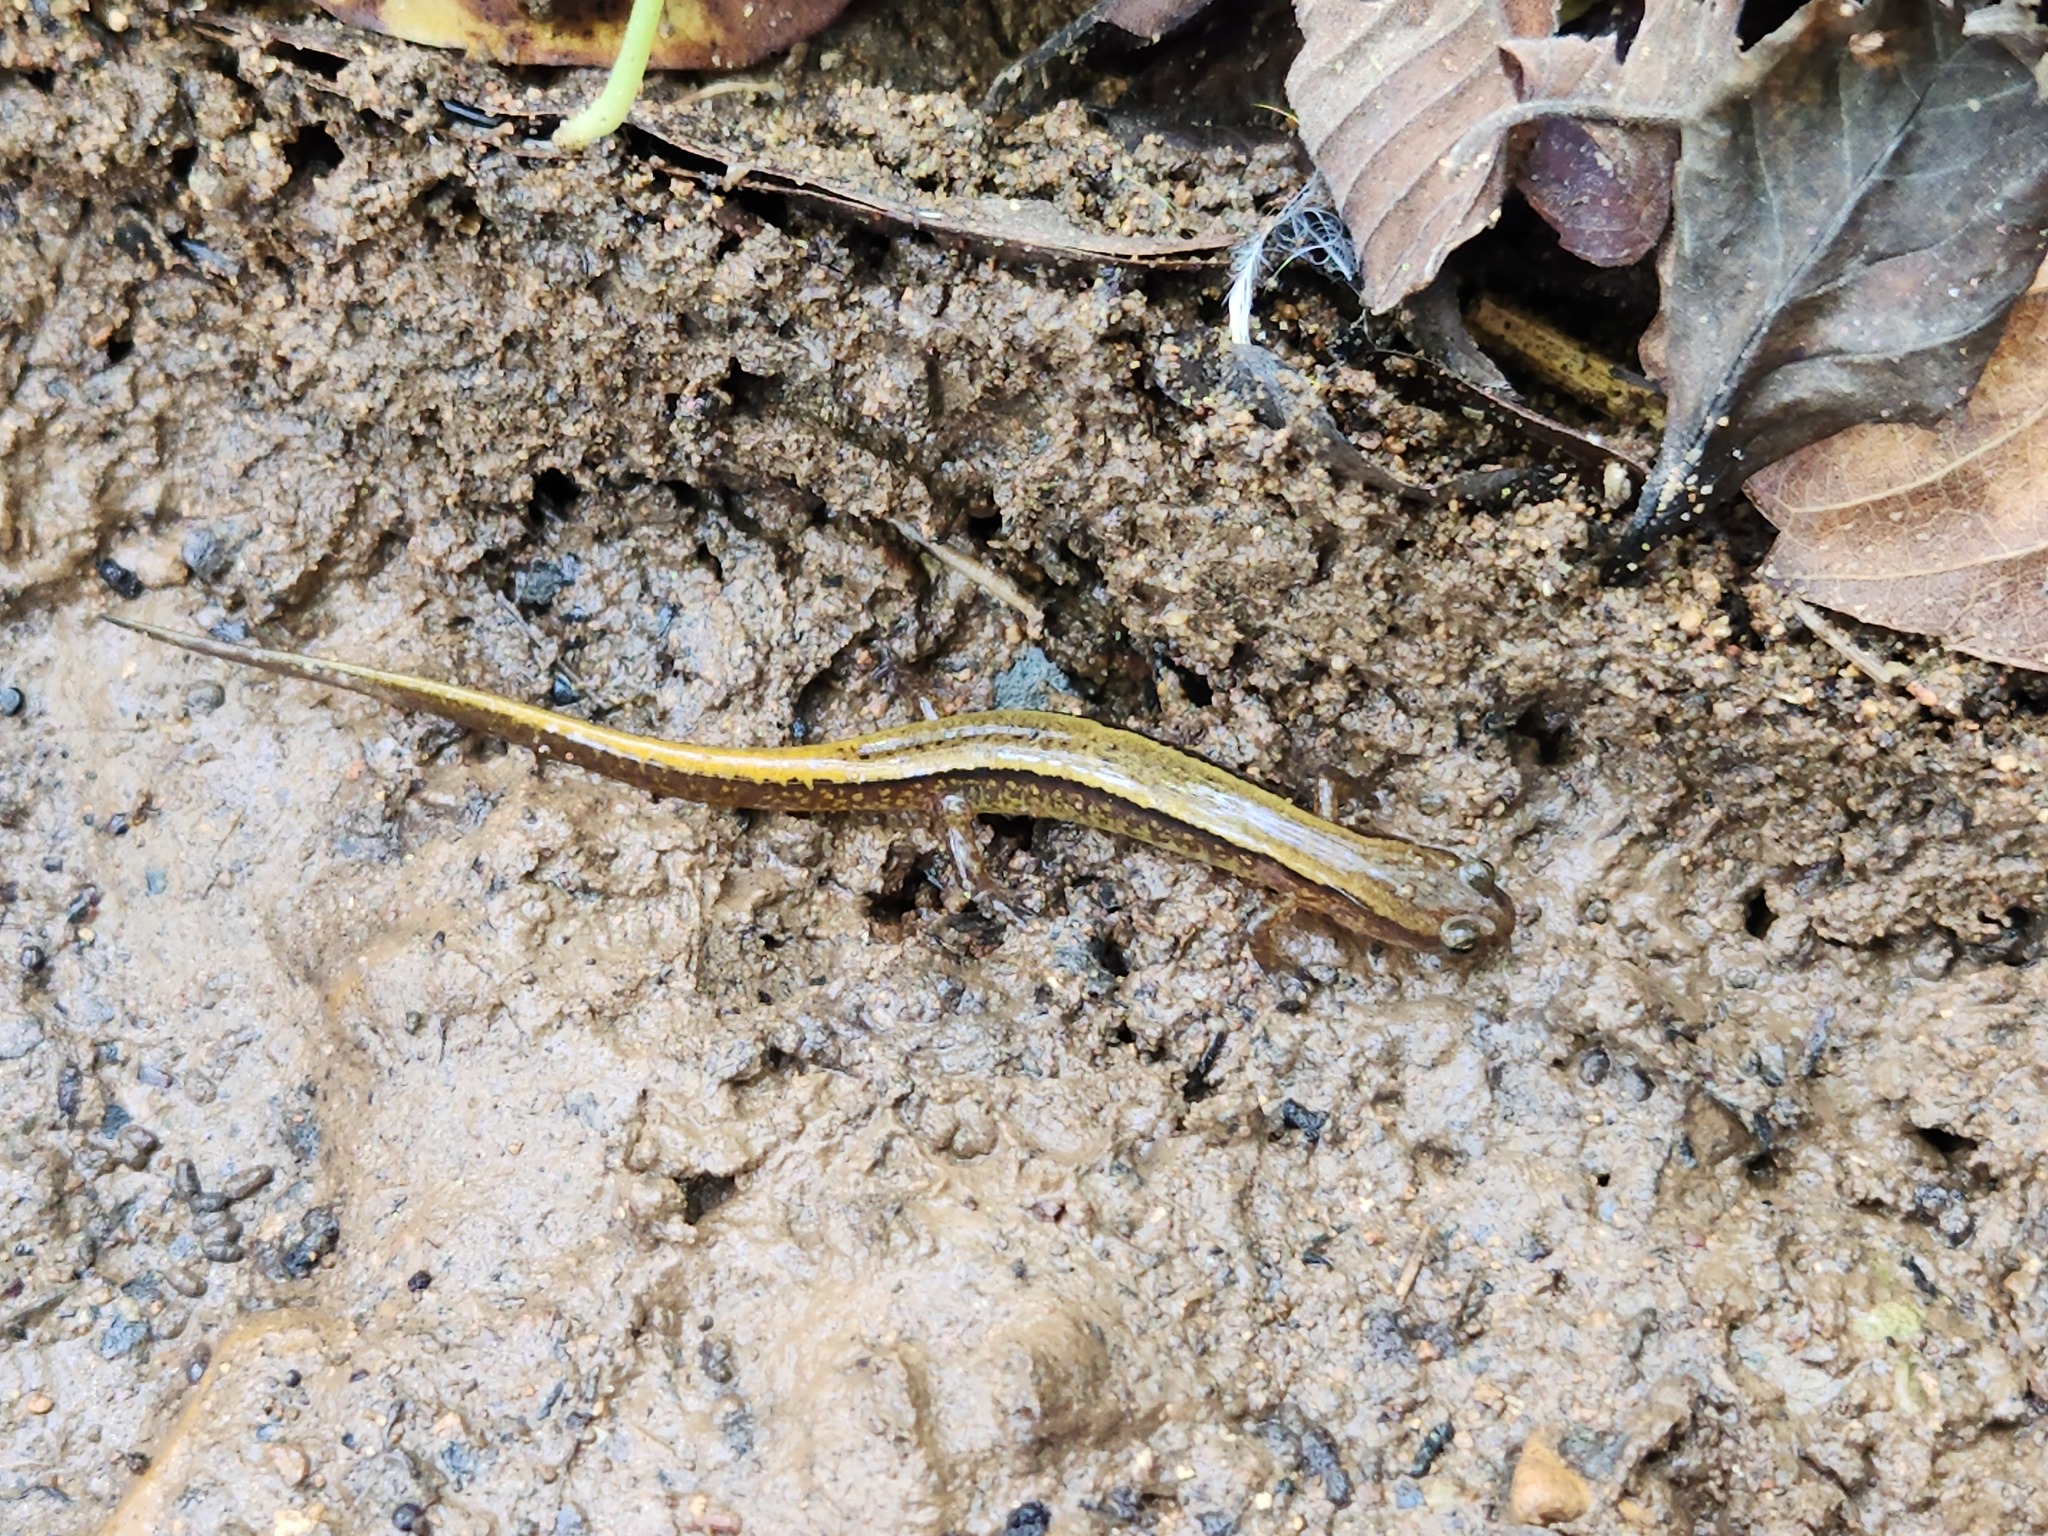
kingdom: Animalia
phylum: Chordata
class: Amphibia
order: Caudata
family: Plethodontidae
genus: Eurycea
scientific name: Eurycea cirrigera
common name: Southern two-lined salamander
